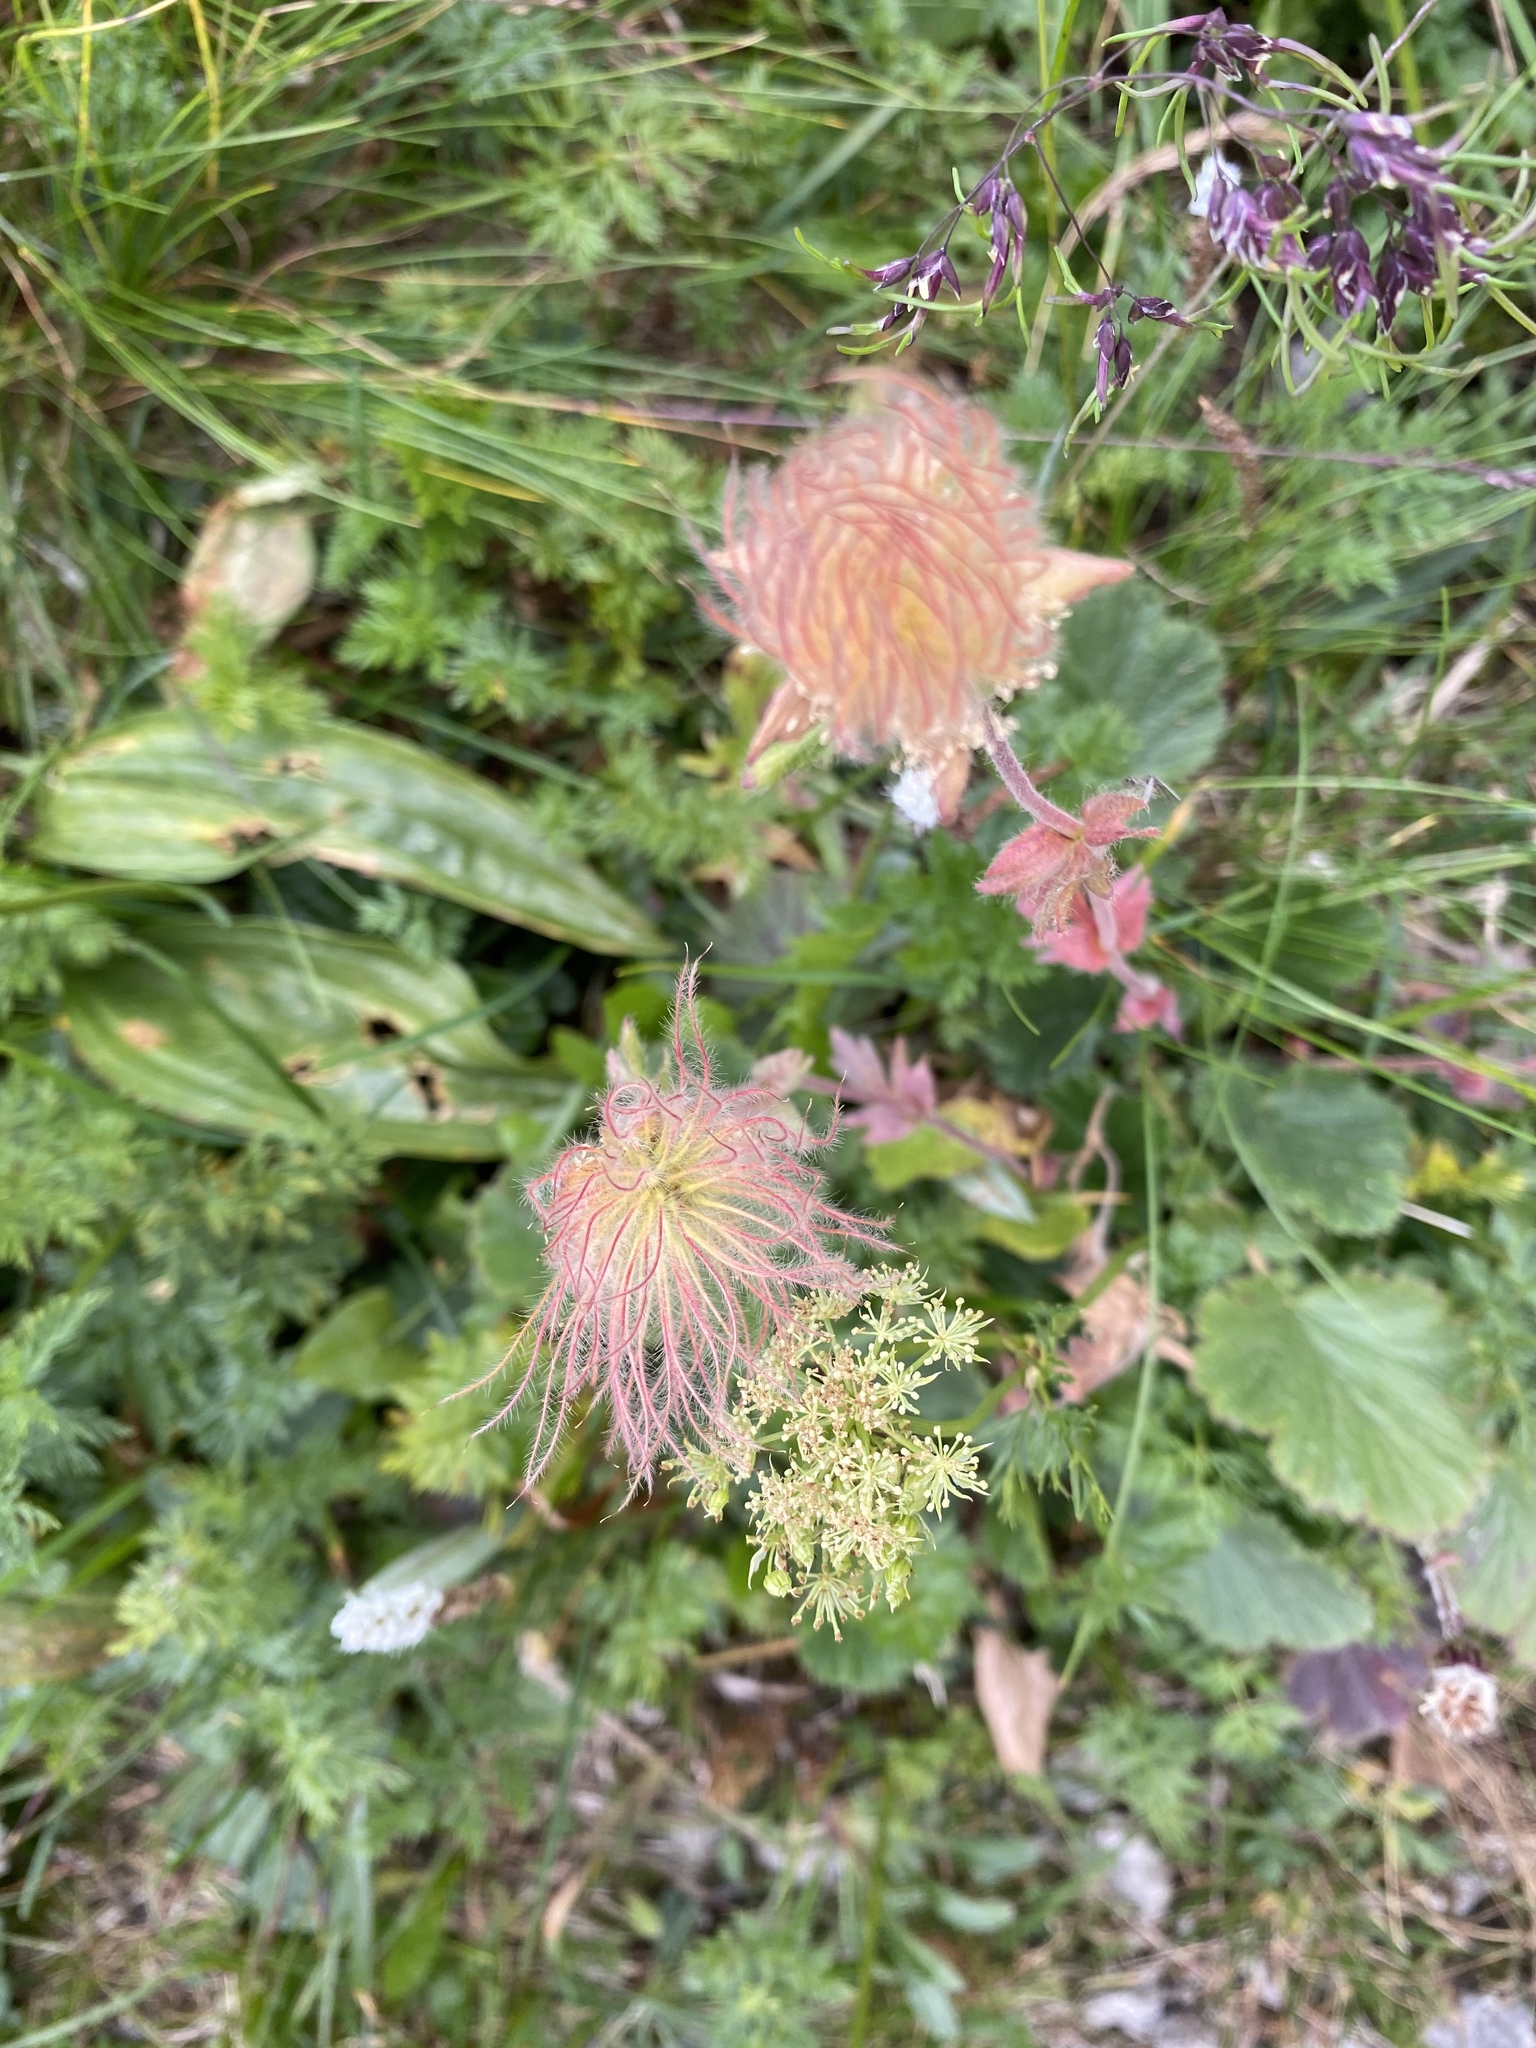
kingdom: Plantae
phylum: Tracheophyta
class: Magnoliopsida
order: Rosales
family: Rosaceae
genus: Geum
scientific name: Geum montanum
